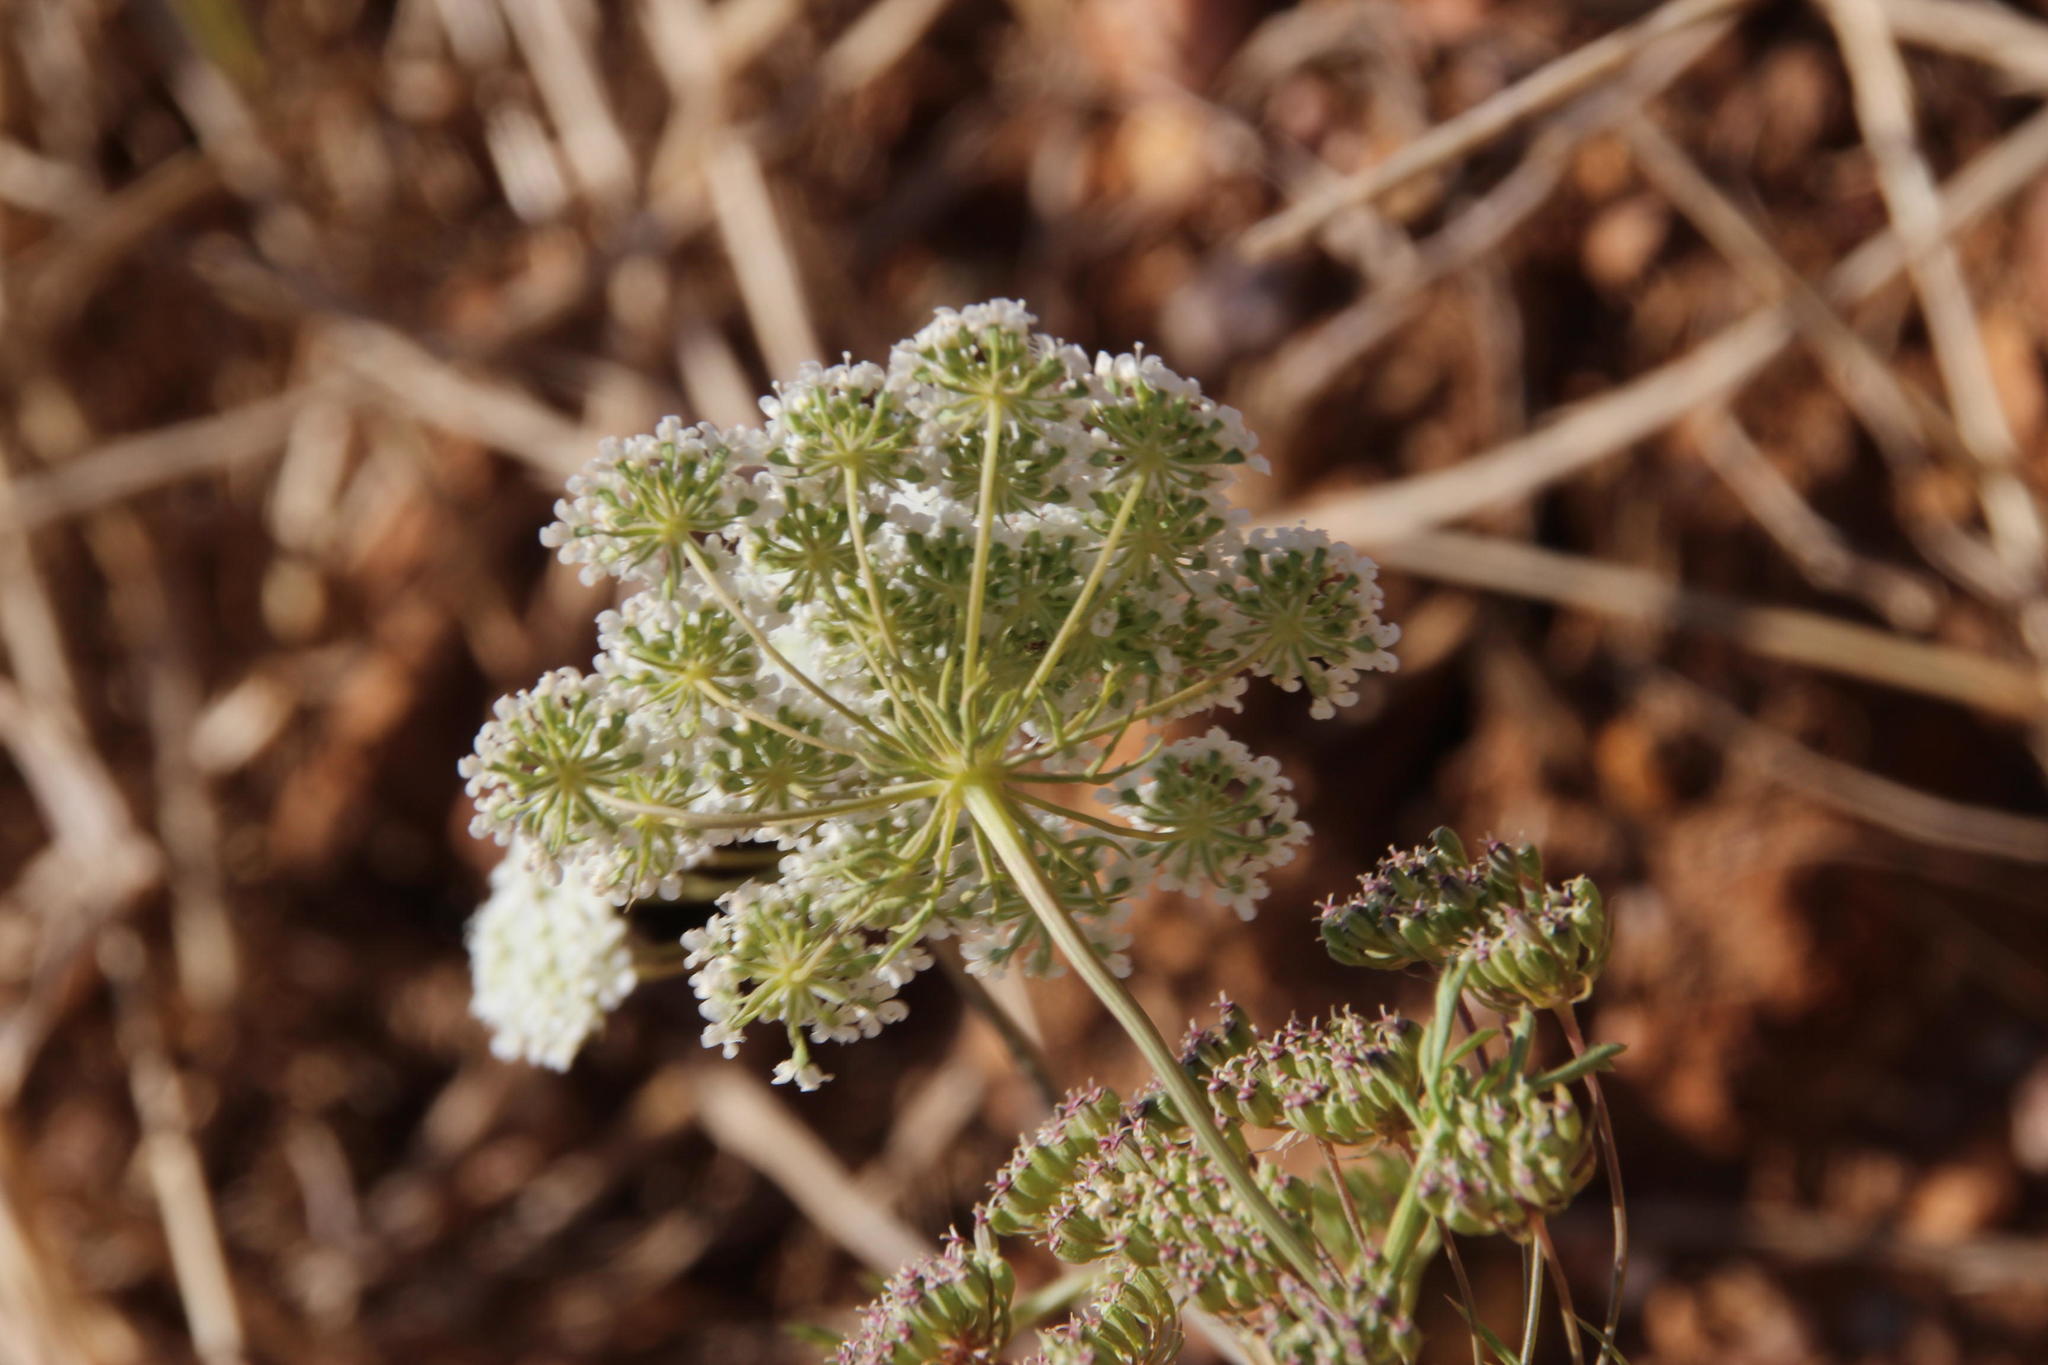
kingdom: Plantae
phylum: Tracheophyta
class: Magnoliopsida
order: Apiales
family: Apiaceae
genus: Ammi
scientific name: Ammi majus
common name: Bullwort
